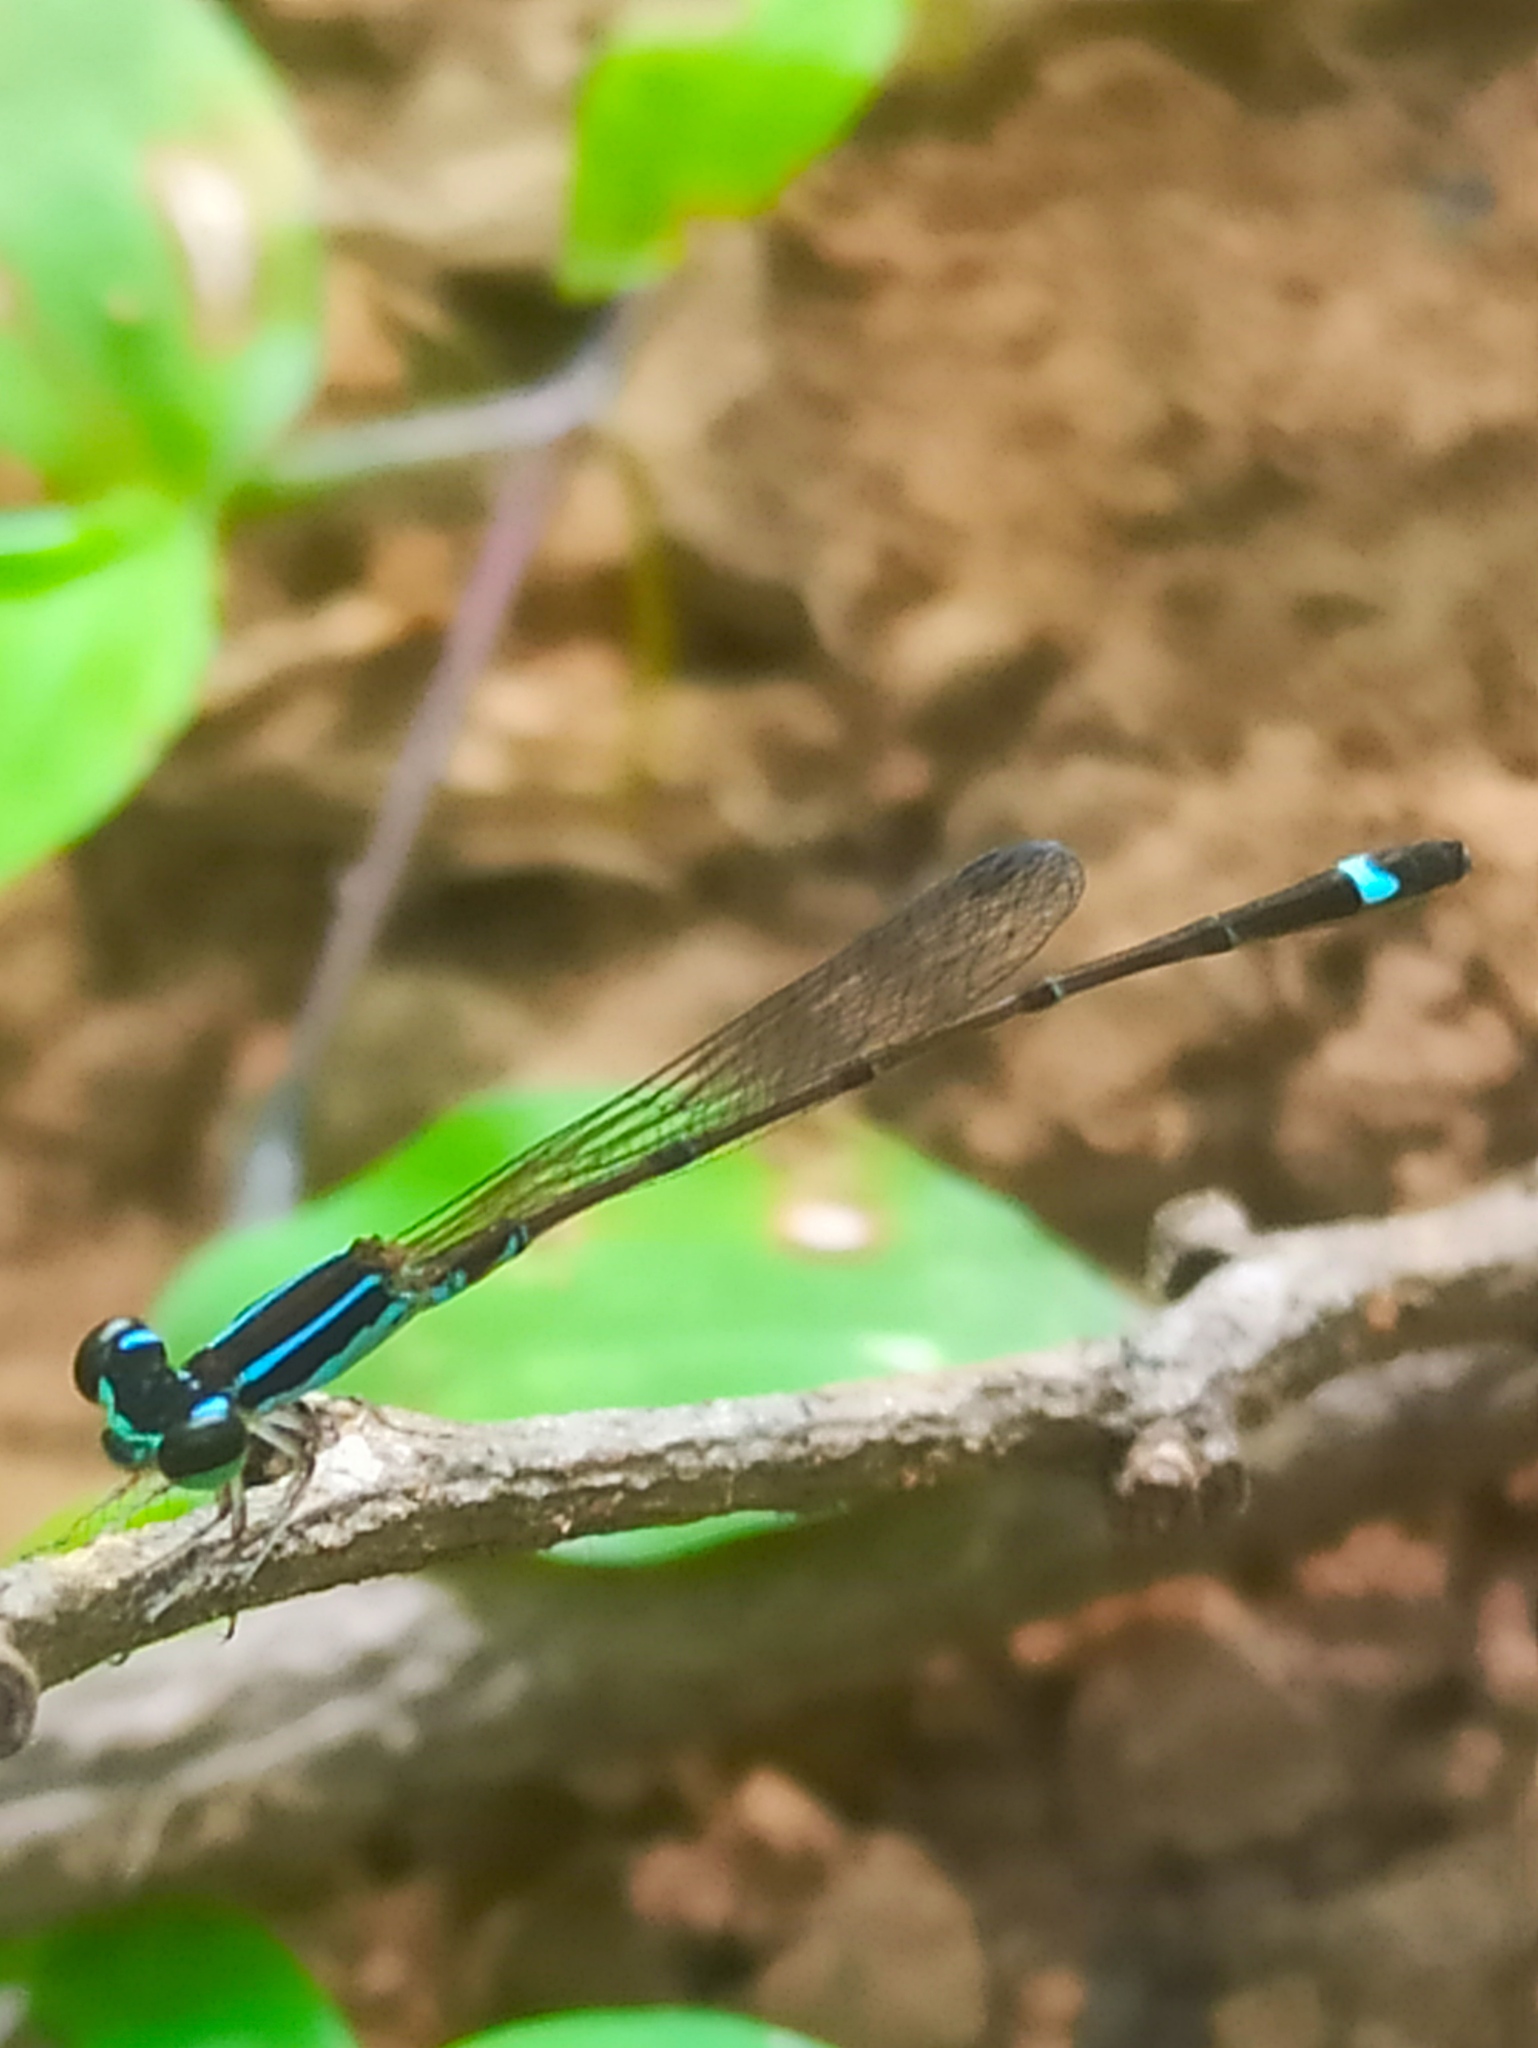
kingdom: Animalia
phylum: Arthropoda
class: Insecta
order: Odonata
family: Coenagrionidae
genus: Mortonagrion
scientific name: Mortonagrion varralli
